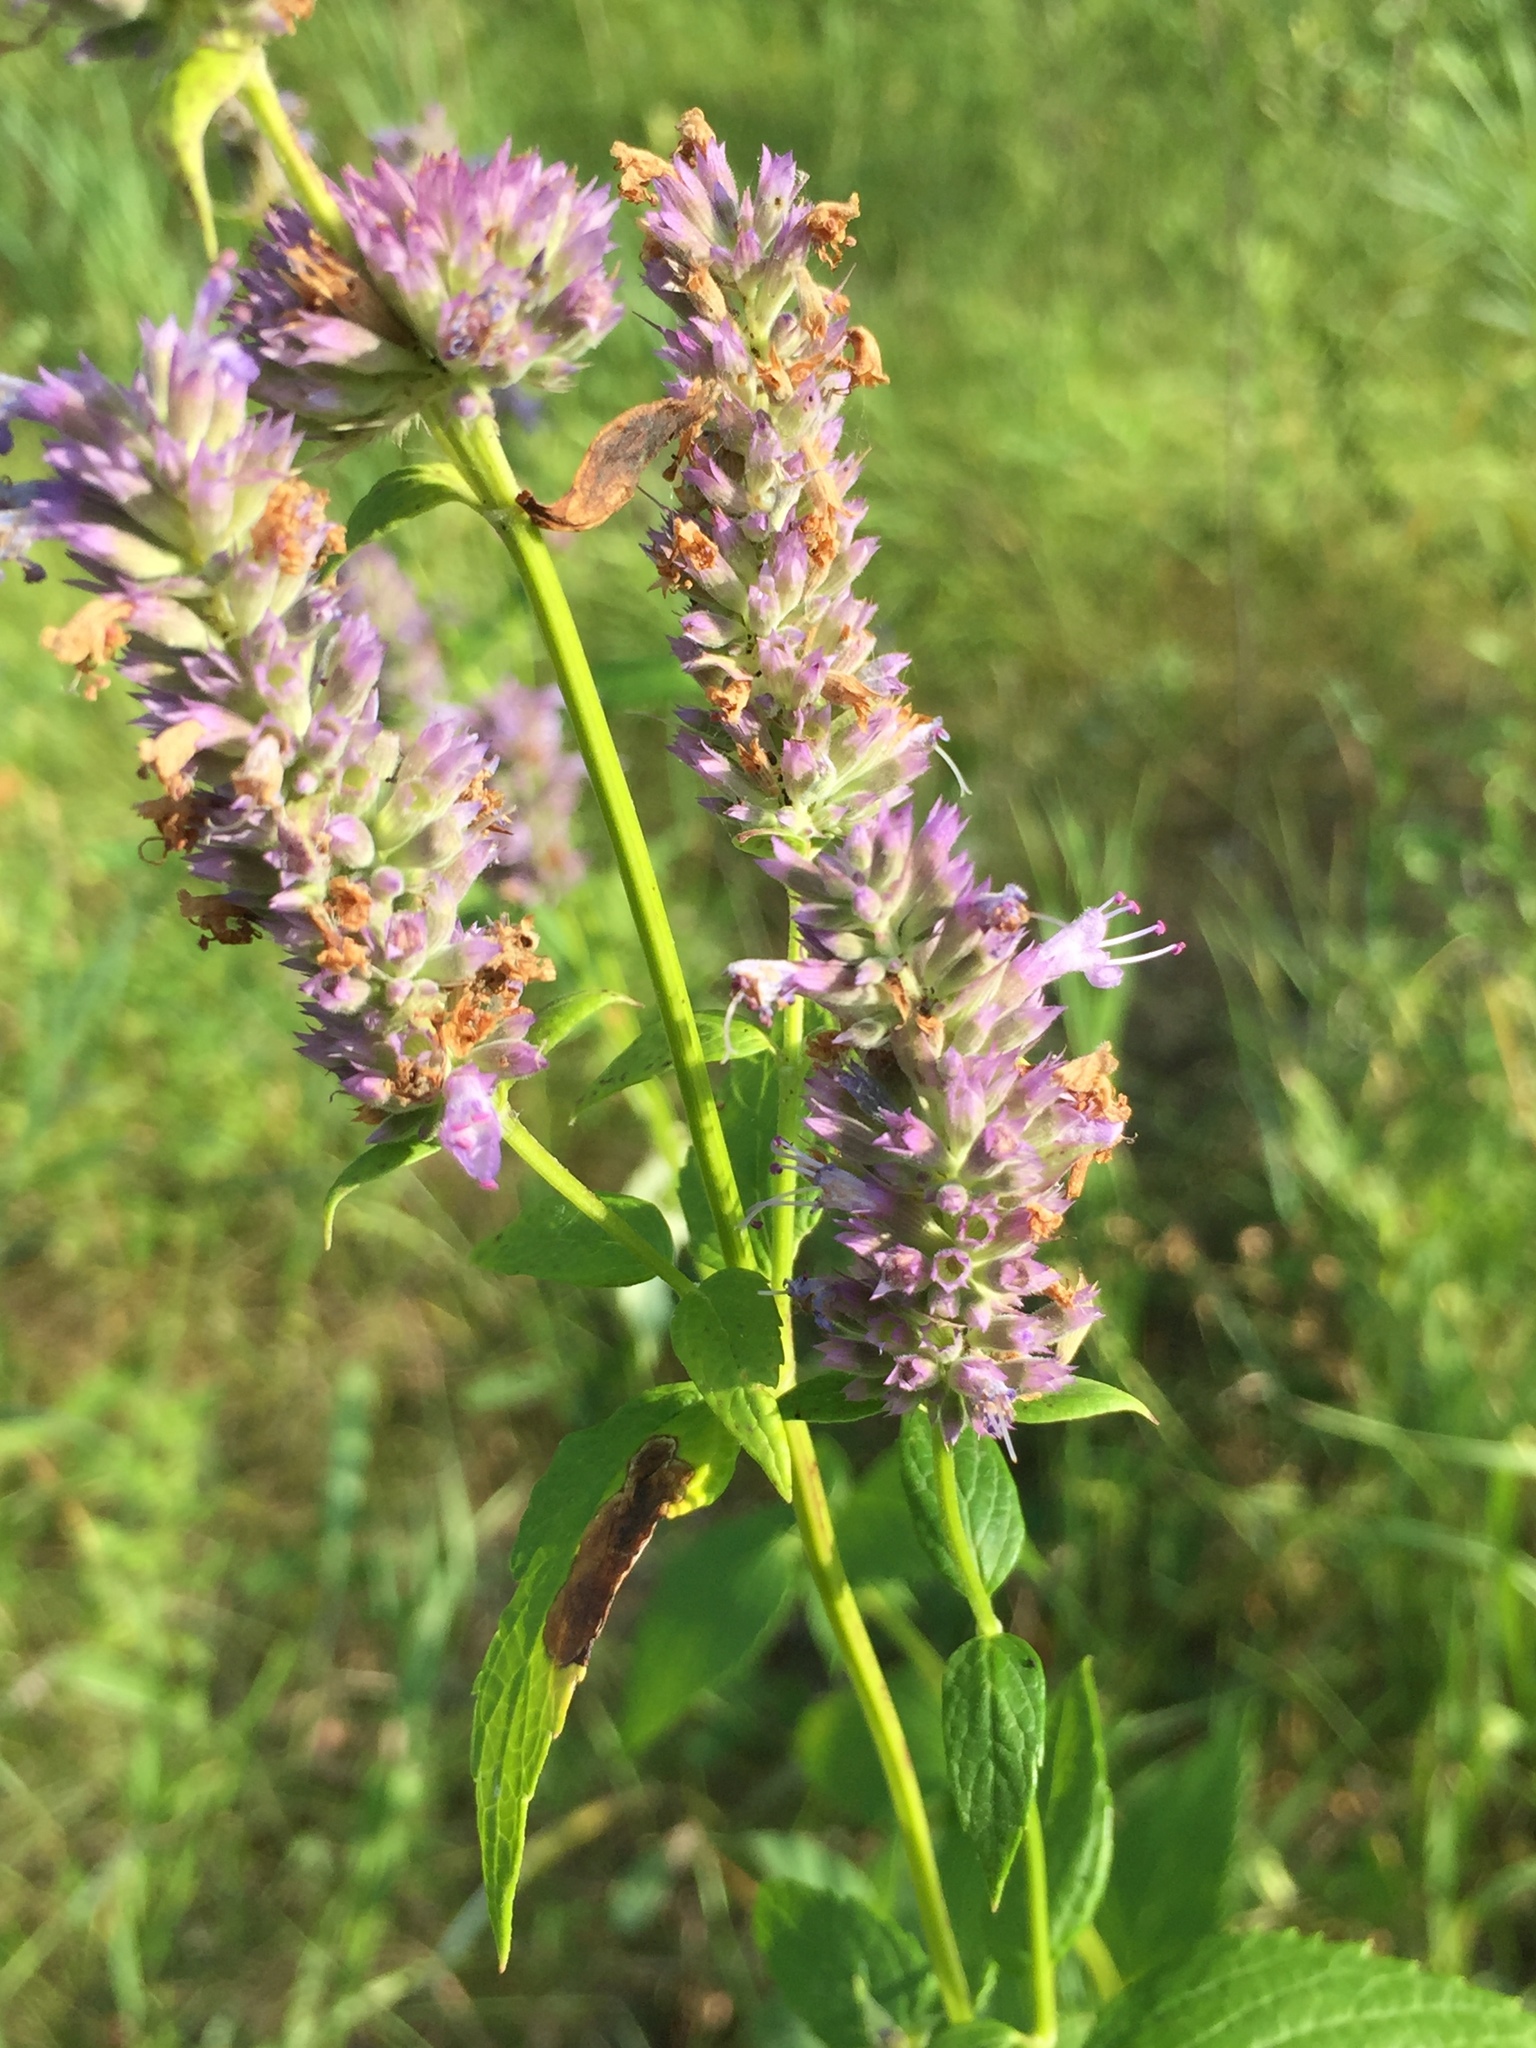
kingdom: Plantae
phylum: Tracheophyta
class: Magnoliopsida
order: Lamiales
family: Lamiaceae
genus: Agastache
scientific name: Agastache foeniculum
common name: Anise hyssop
